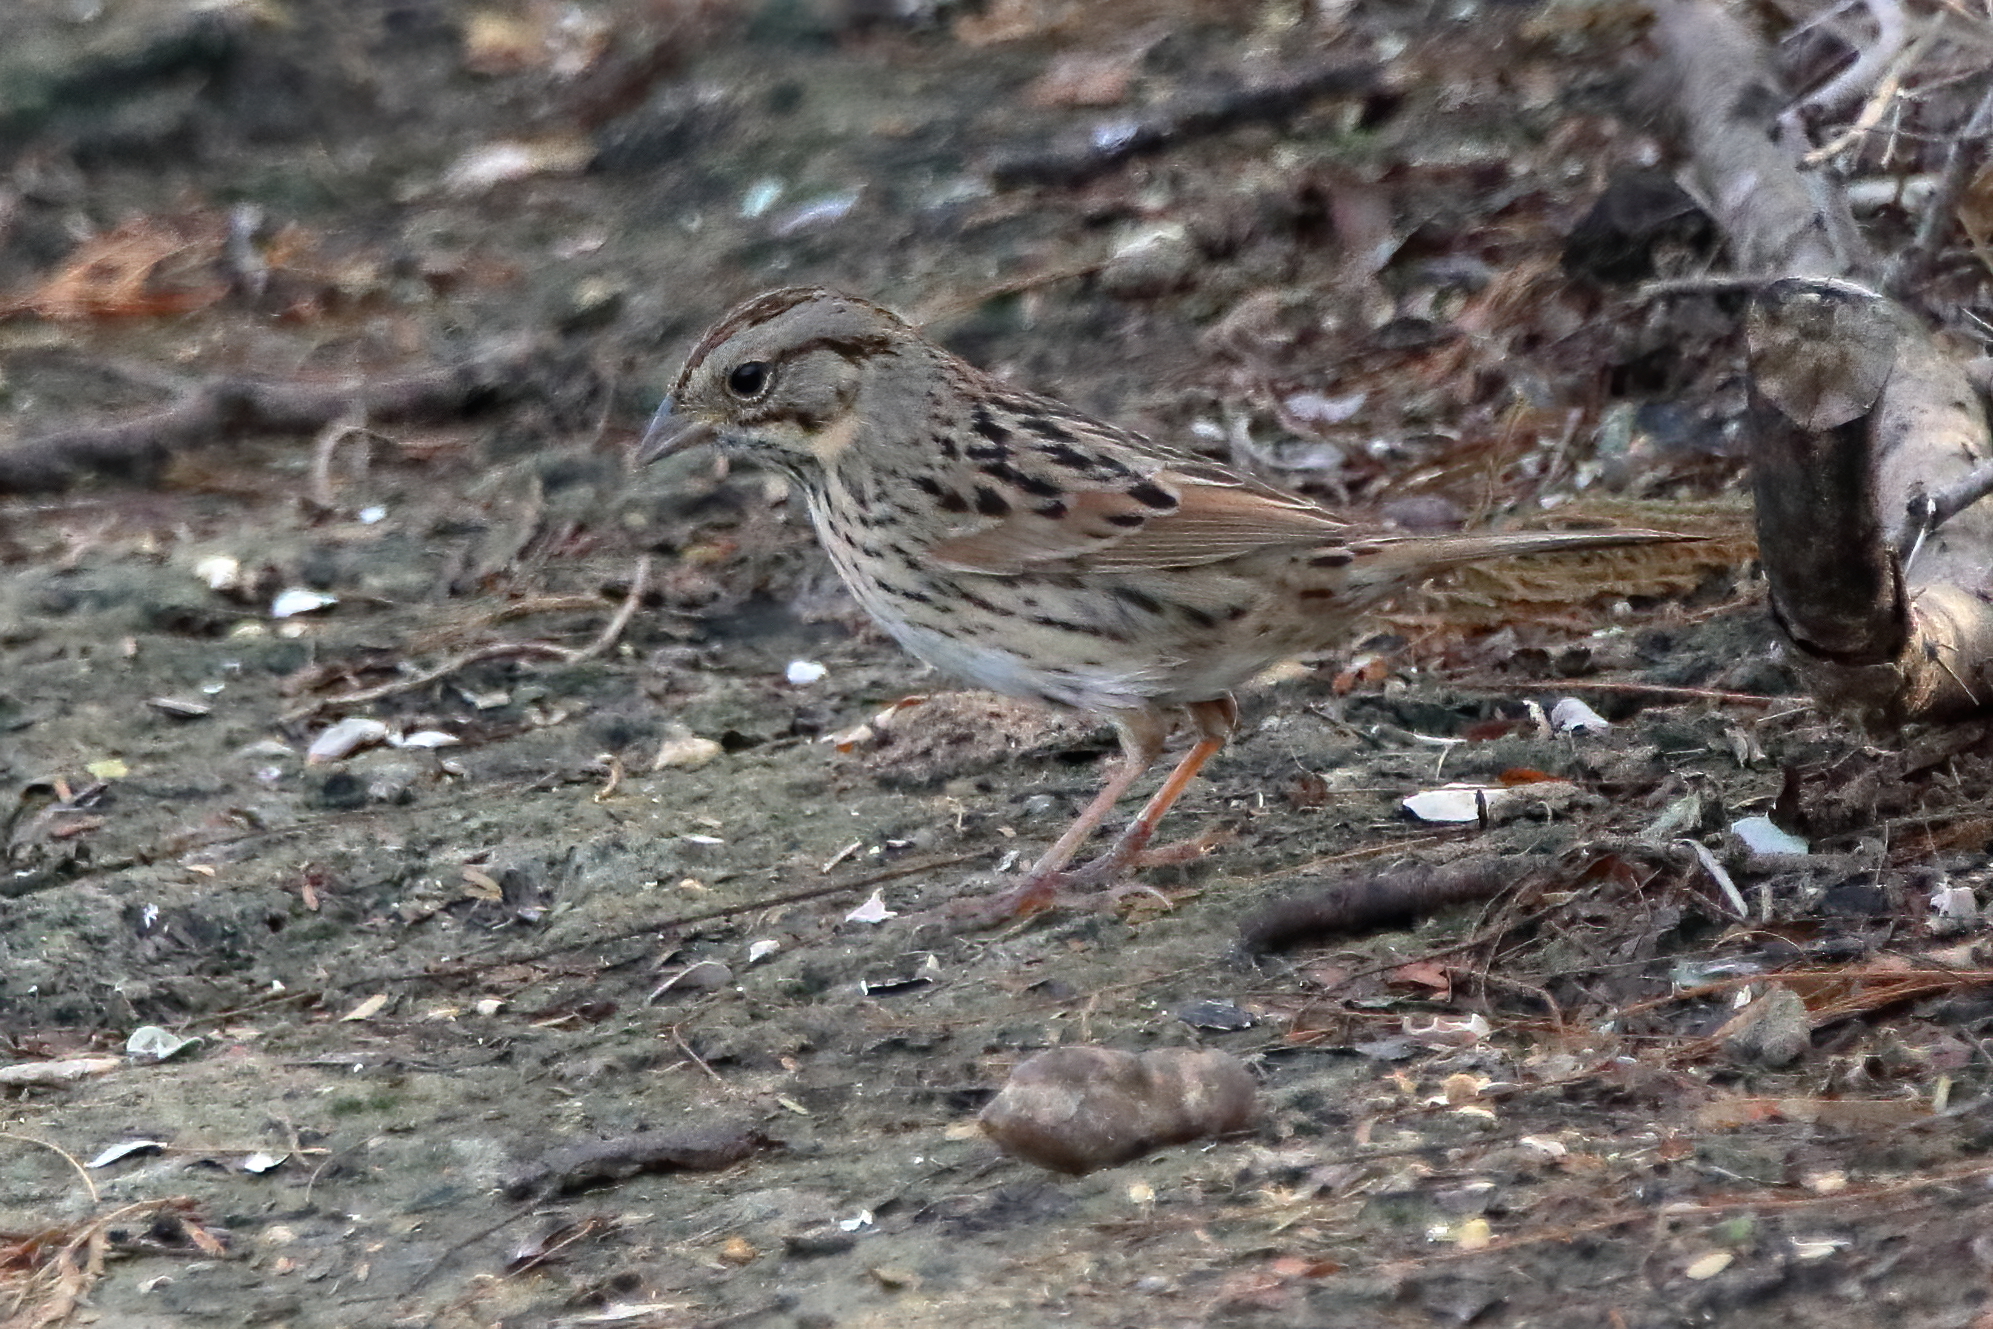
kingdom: Animalia
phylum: Chordata
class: Aves
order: Passeriformes
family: Passerellidae
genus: Melospiza
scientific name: Melospiza lincolnii
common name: Lincoln's sparrow
